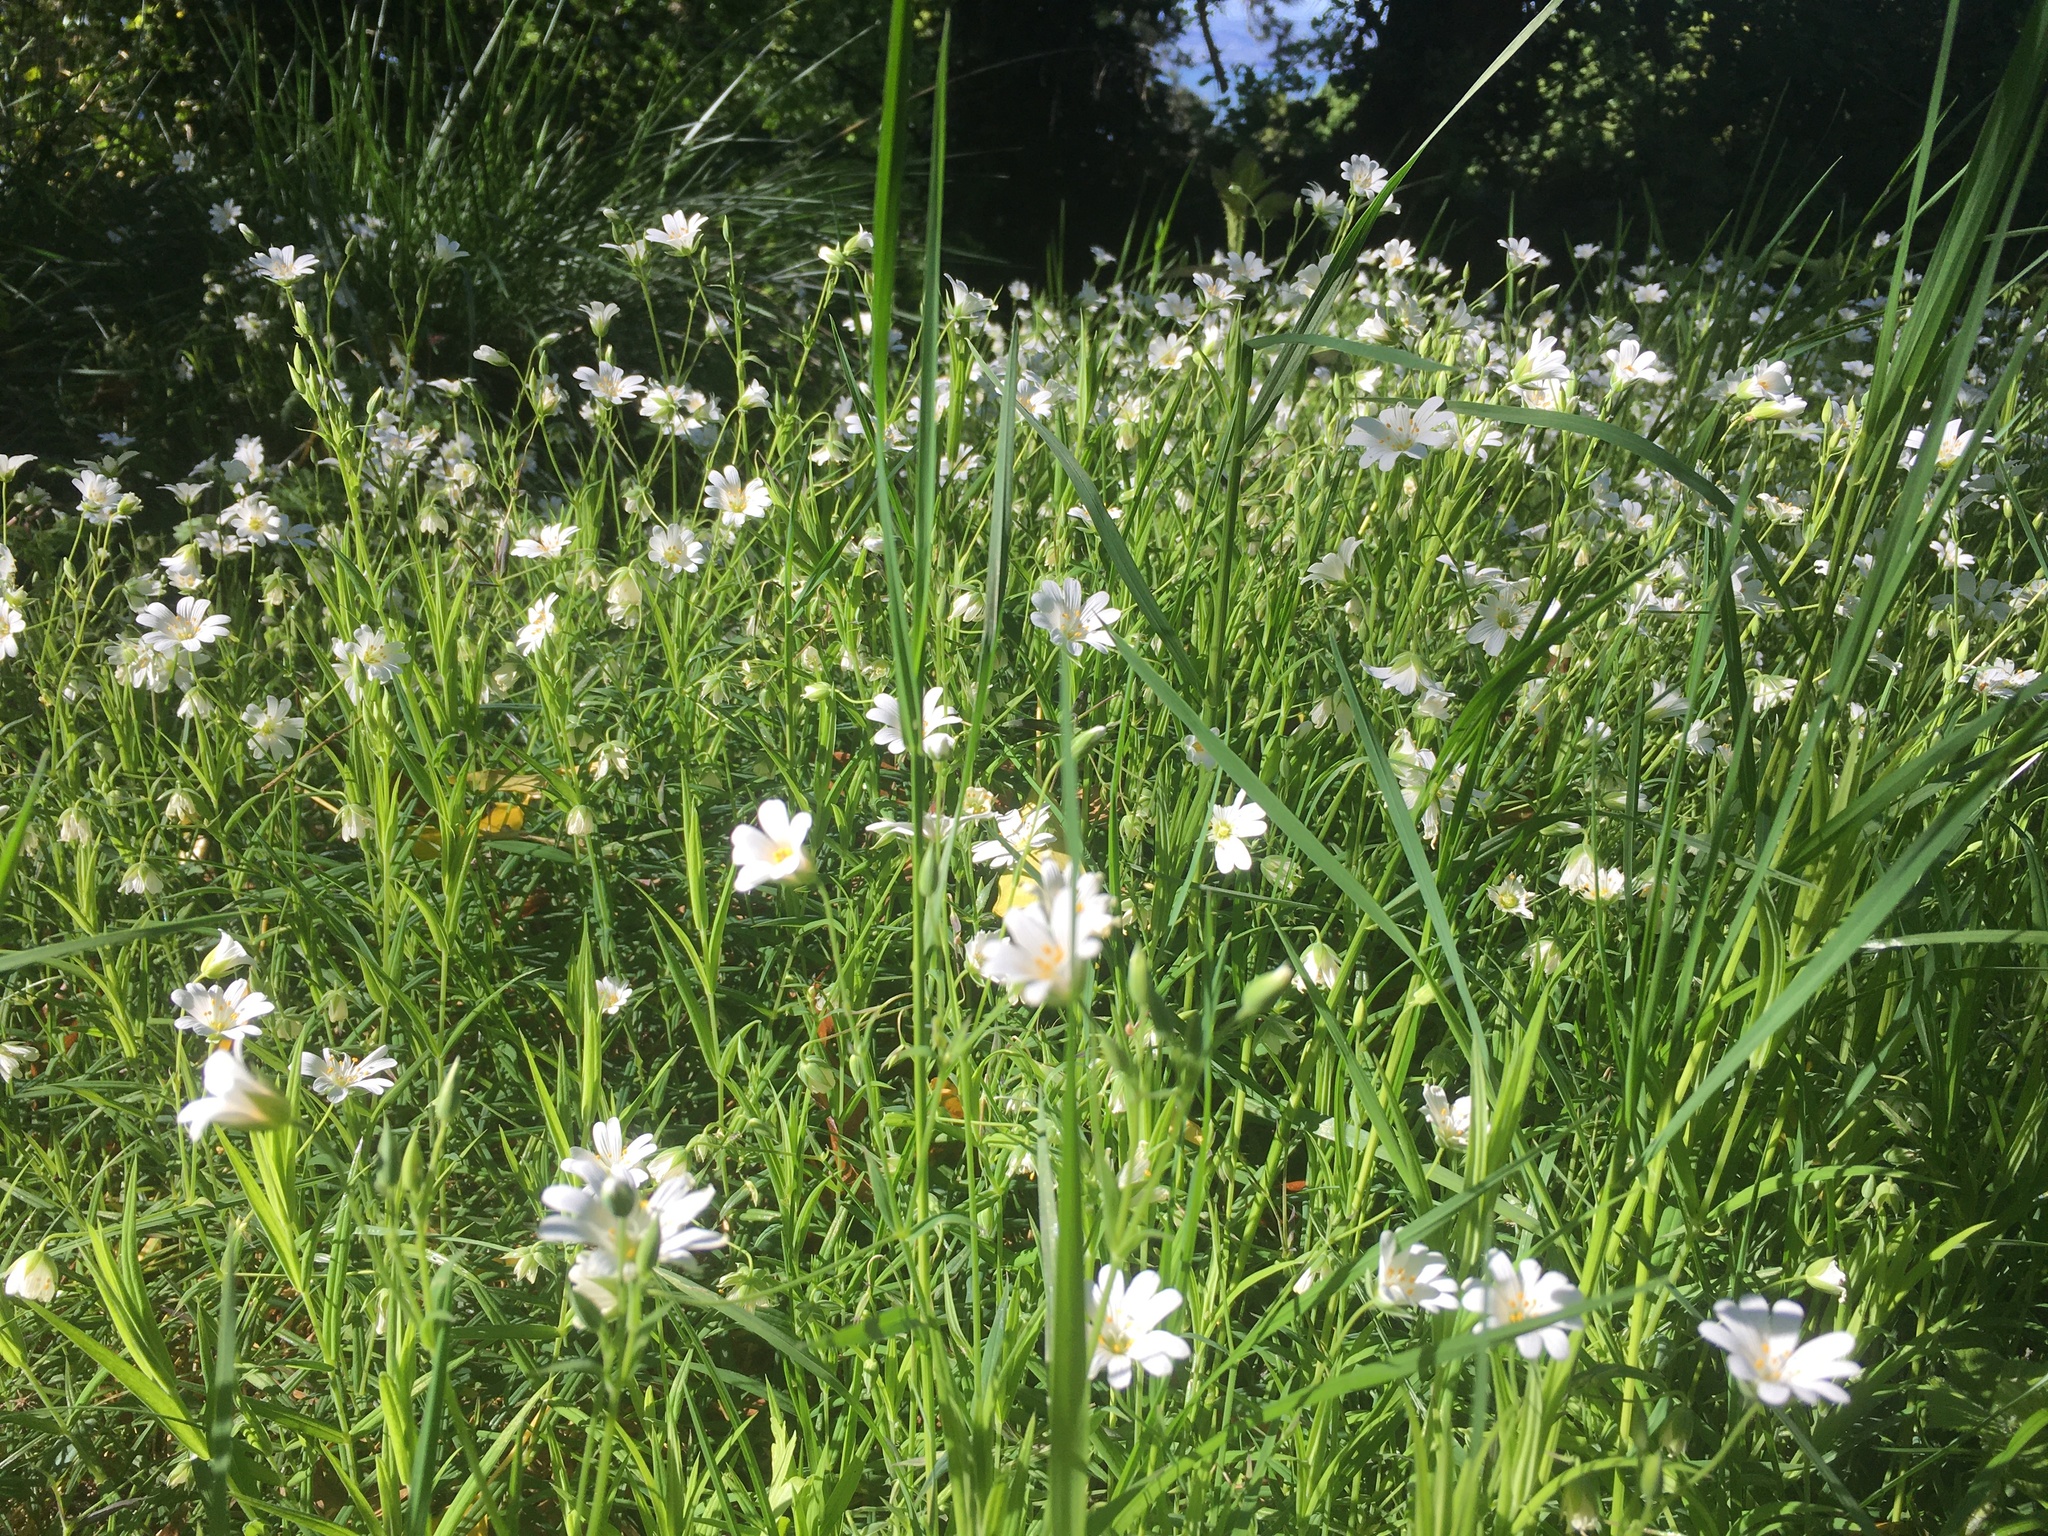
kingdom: Plantae
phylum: Tracheophyta
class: Magnoliopsida
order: Caryophyllales
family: Caryophyllaceae
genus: Rabelera
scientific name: Rabelera holostea
